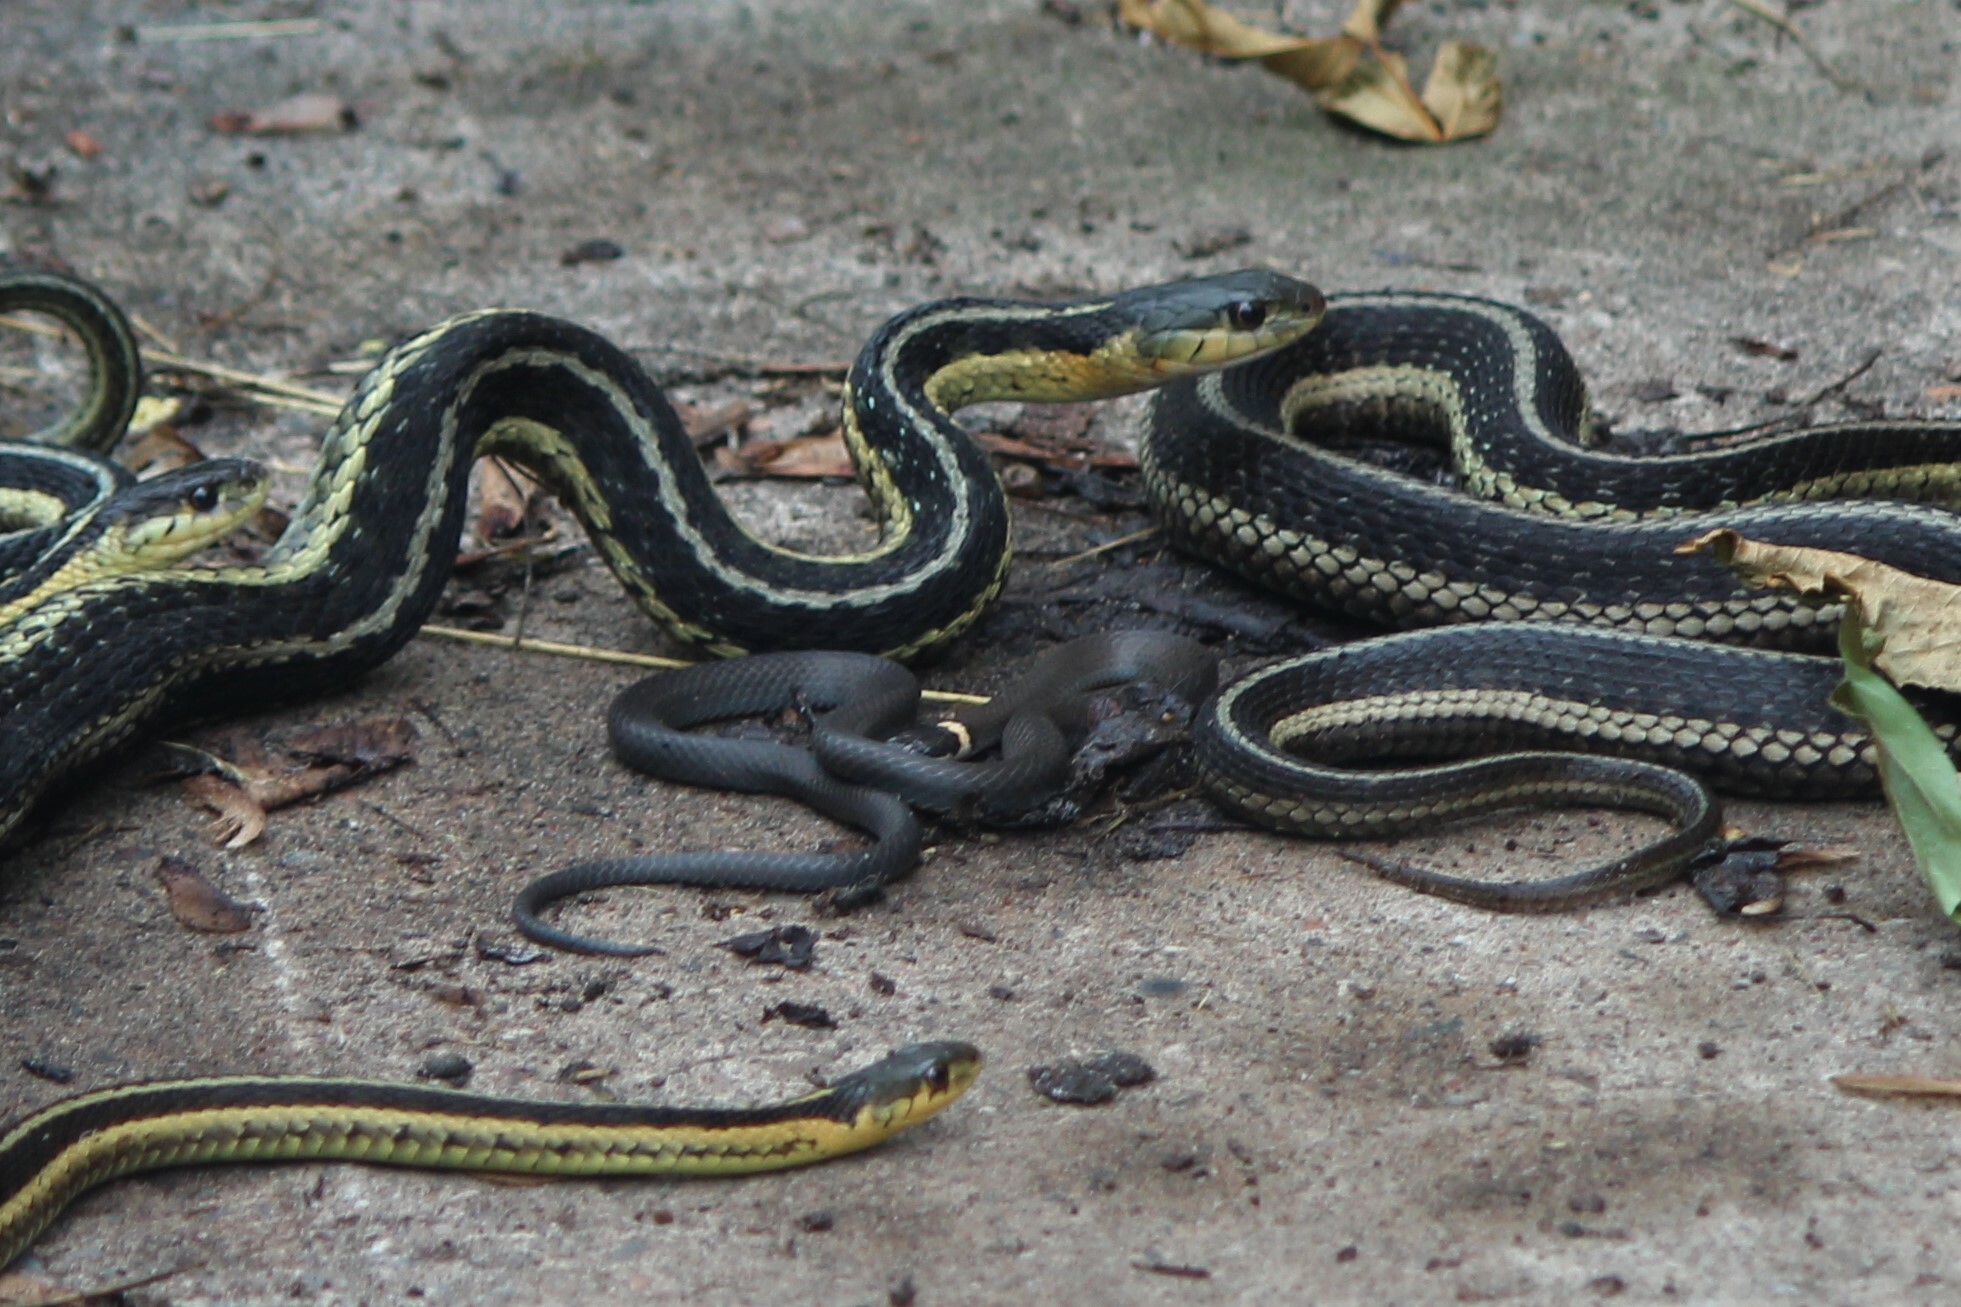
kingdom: Animalia
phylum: Chordata
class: Squamata
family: Colubridae
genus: Diadophis
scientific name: Diadophis punctatus
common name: Ringneck snake
